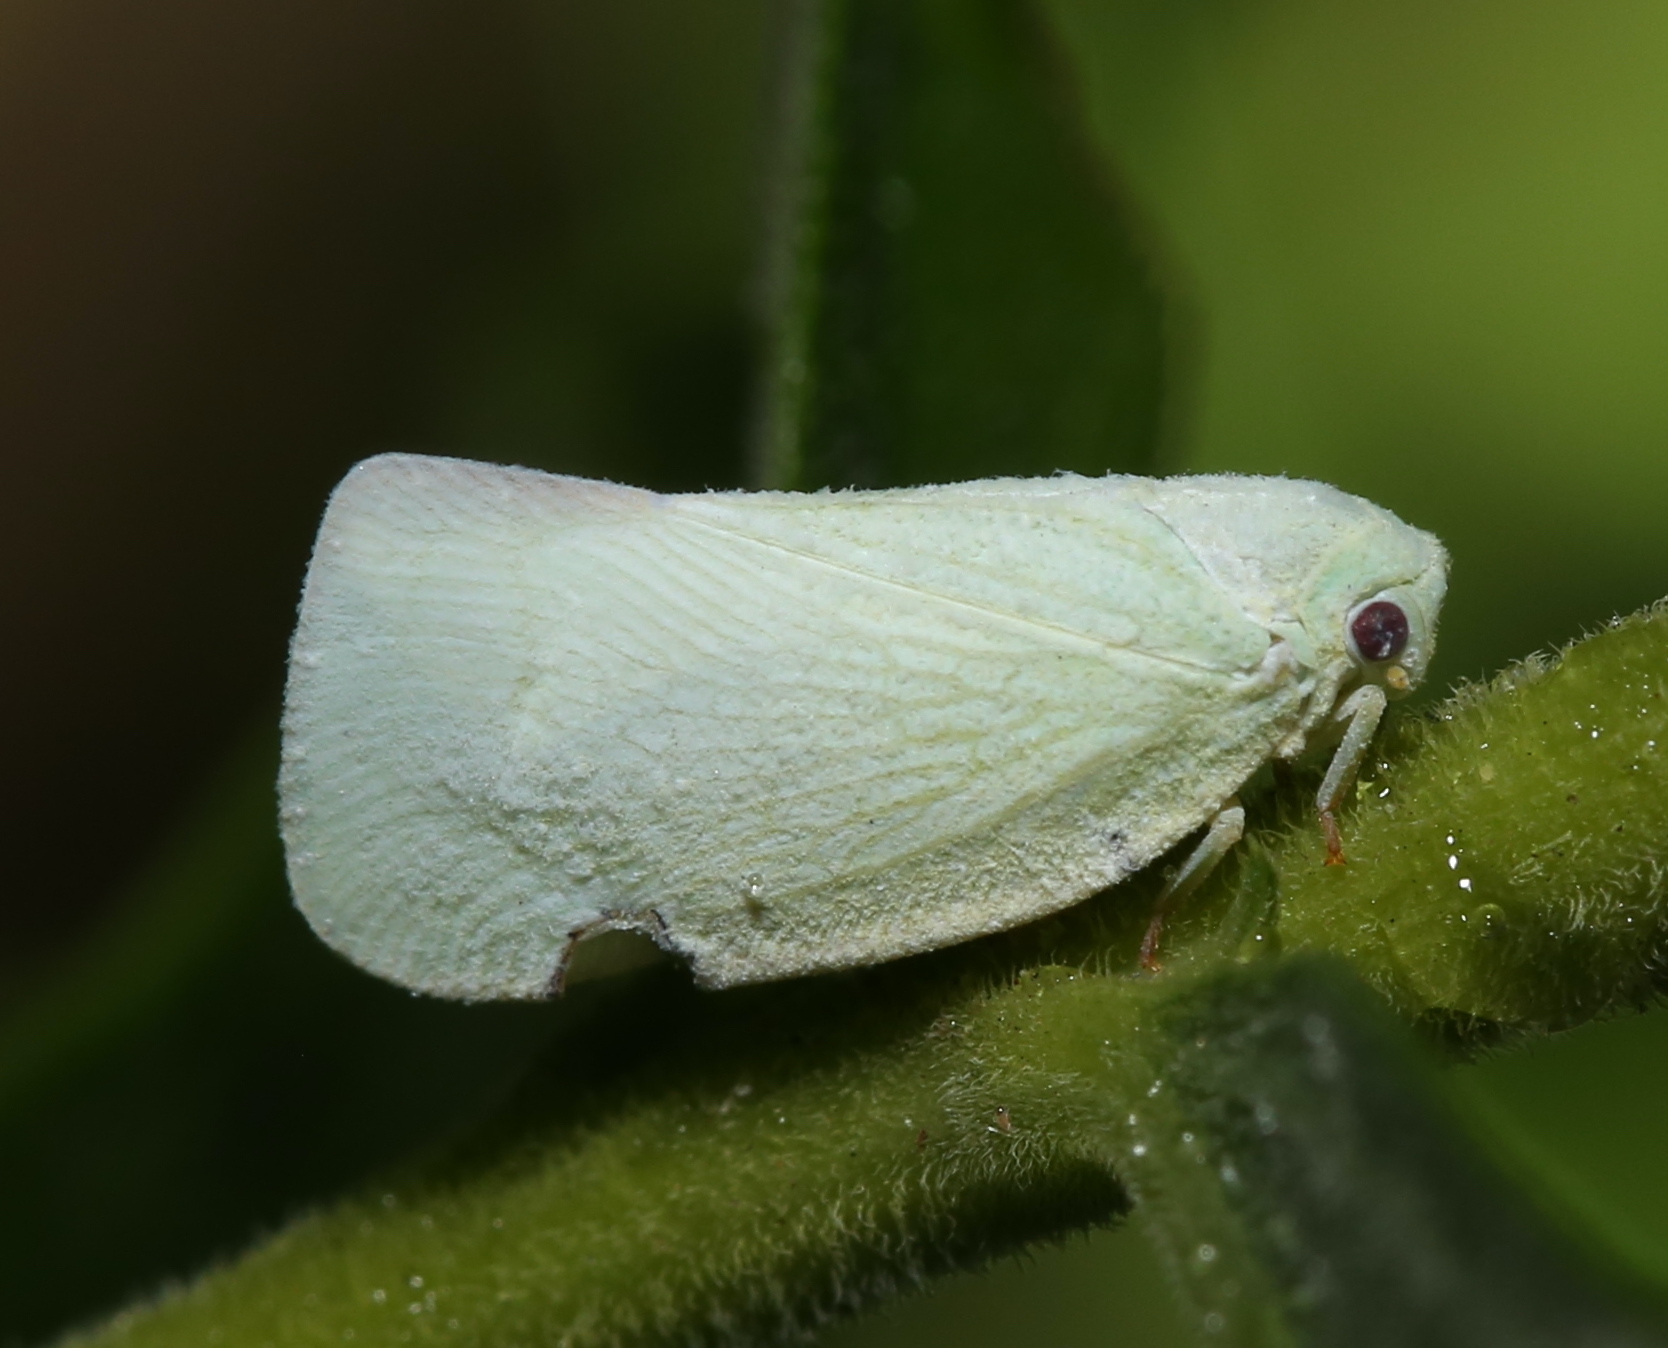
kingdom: Animalia
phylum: Arthropoda
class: Insecta
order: Hemiptera
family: Flatidae
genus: Flatormenis
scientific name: Flatormenis proxima
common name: Northern flatid planthopper
